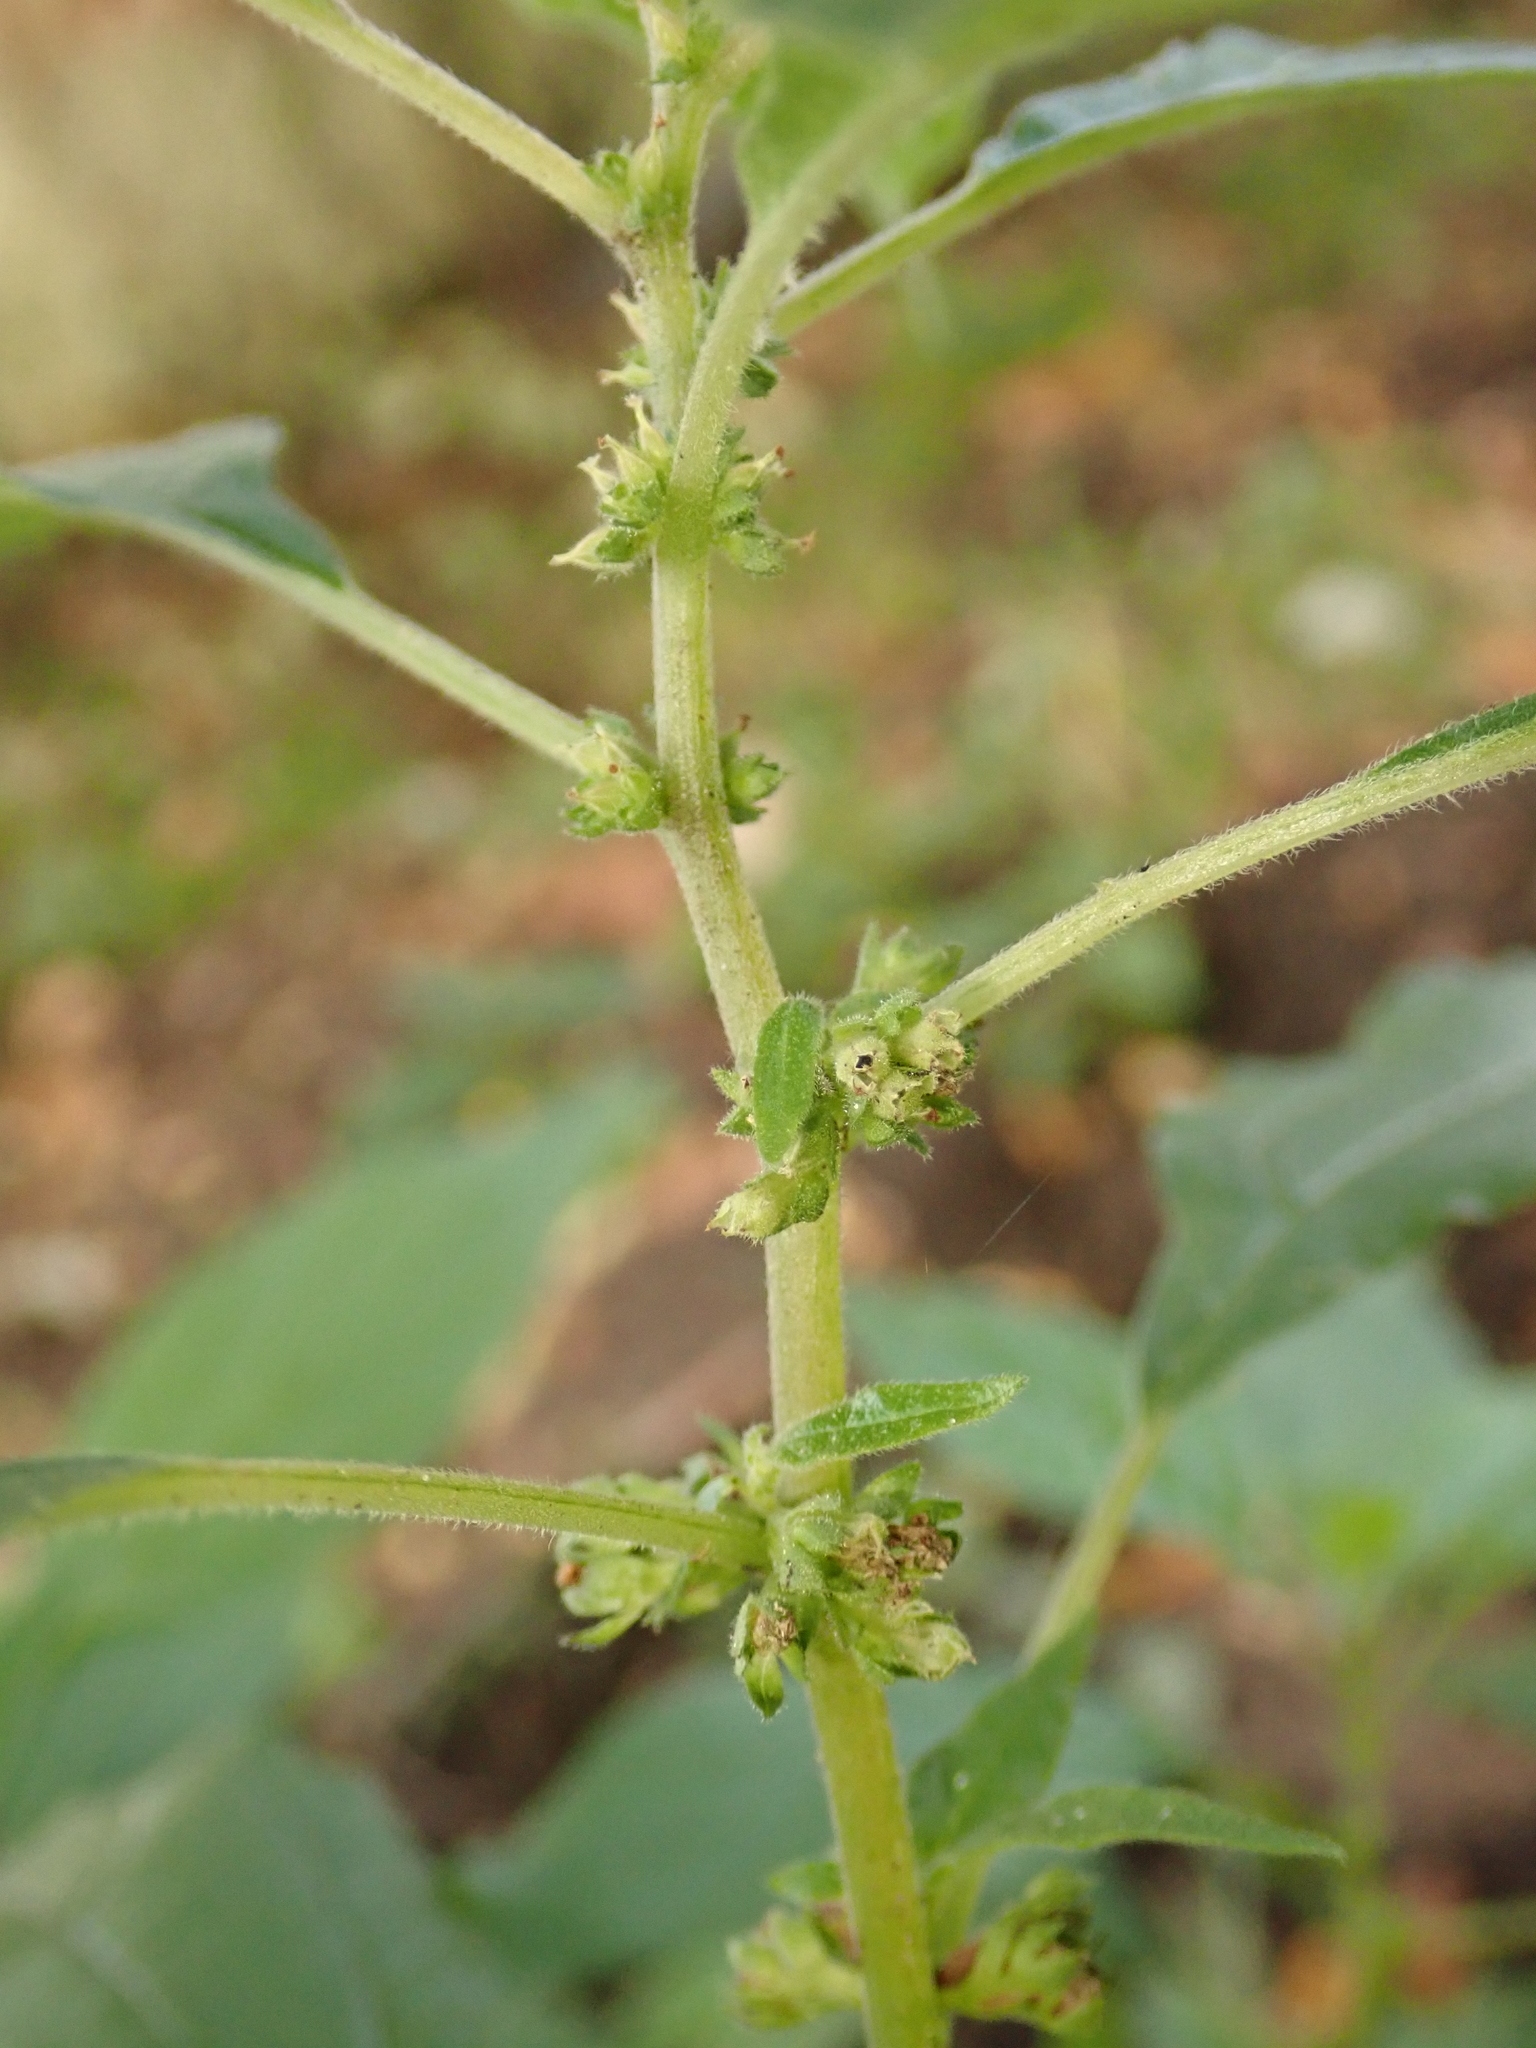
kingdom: Plantae
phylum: Tracheophyta
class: Magnoliopsida
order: Rosales
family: Urticaceae
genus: Parietaria
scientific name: Parietaria officinalis
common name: Eastern pellitory-of-the-wall
